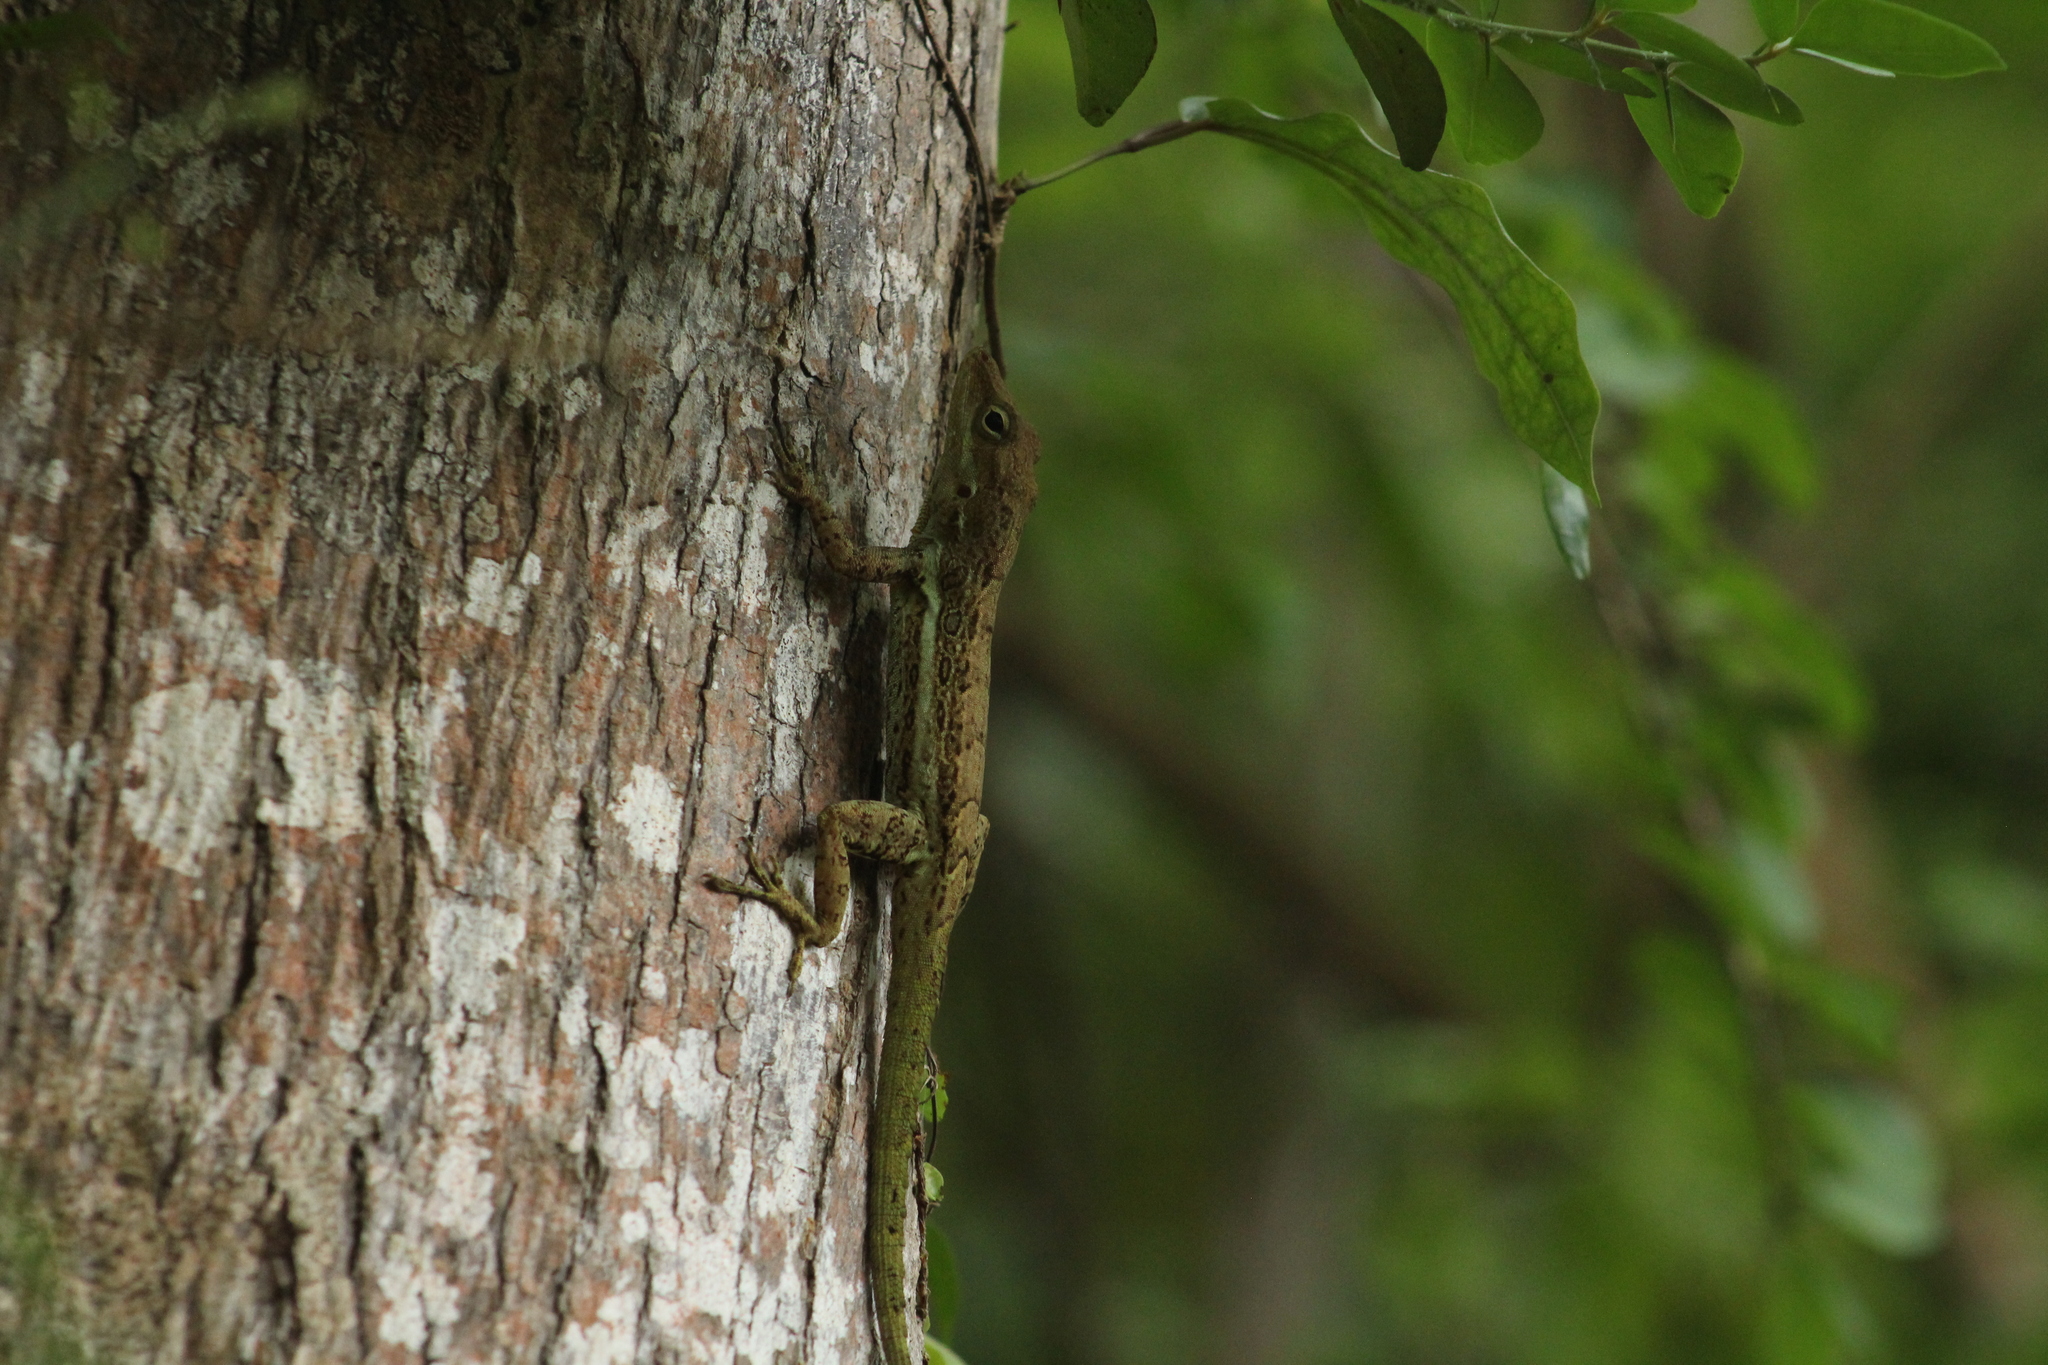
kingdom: Animalia
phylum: Chordata
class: Squamata
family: Dactyloidae
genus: Anolis
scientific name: Anolis gingivinus
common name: Anguilla anole
